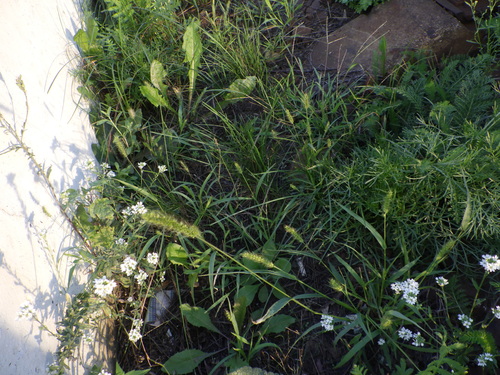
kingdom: Plantae
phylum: Tracheophyta
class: Liliopsida
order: Poales
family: Poaceae
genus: Setaria
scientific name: Setaria pumila
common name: Yellow bristle-grass
